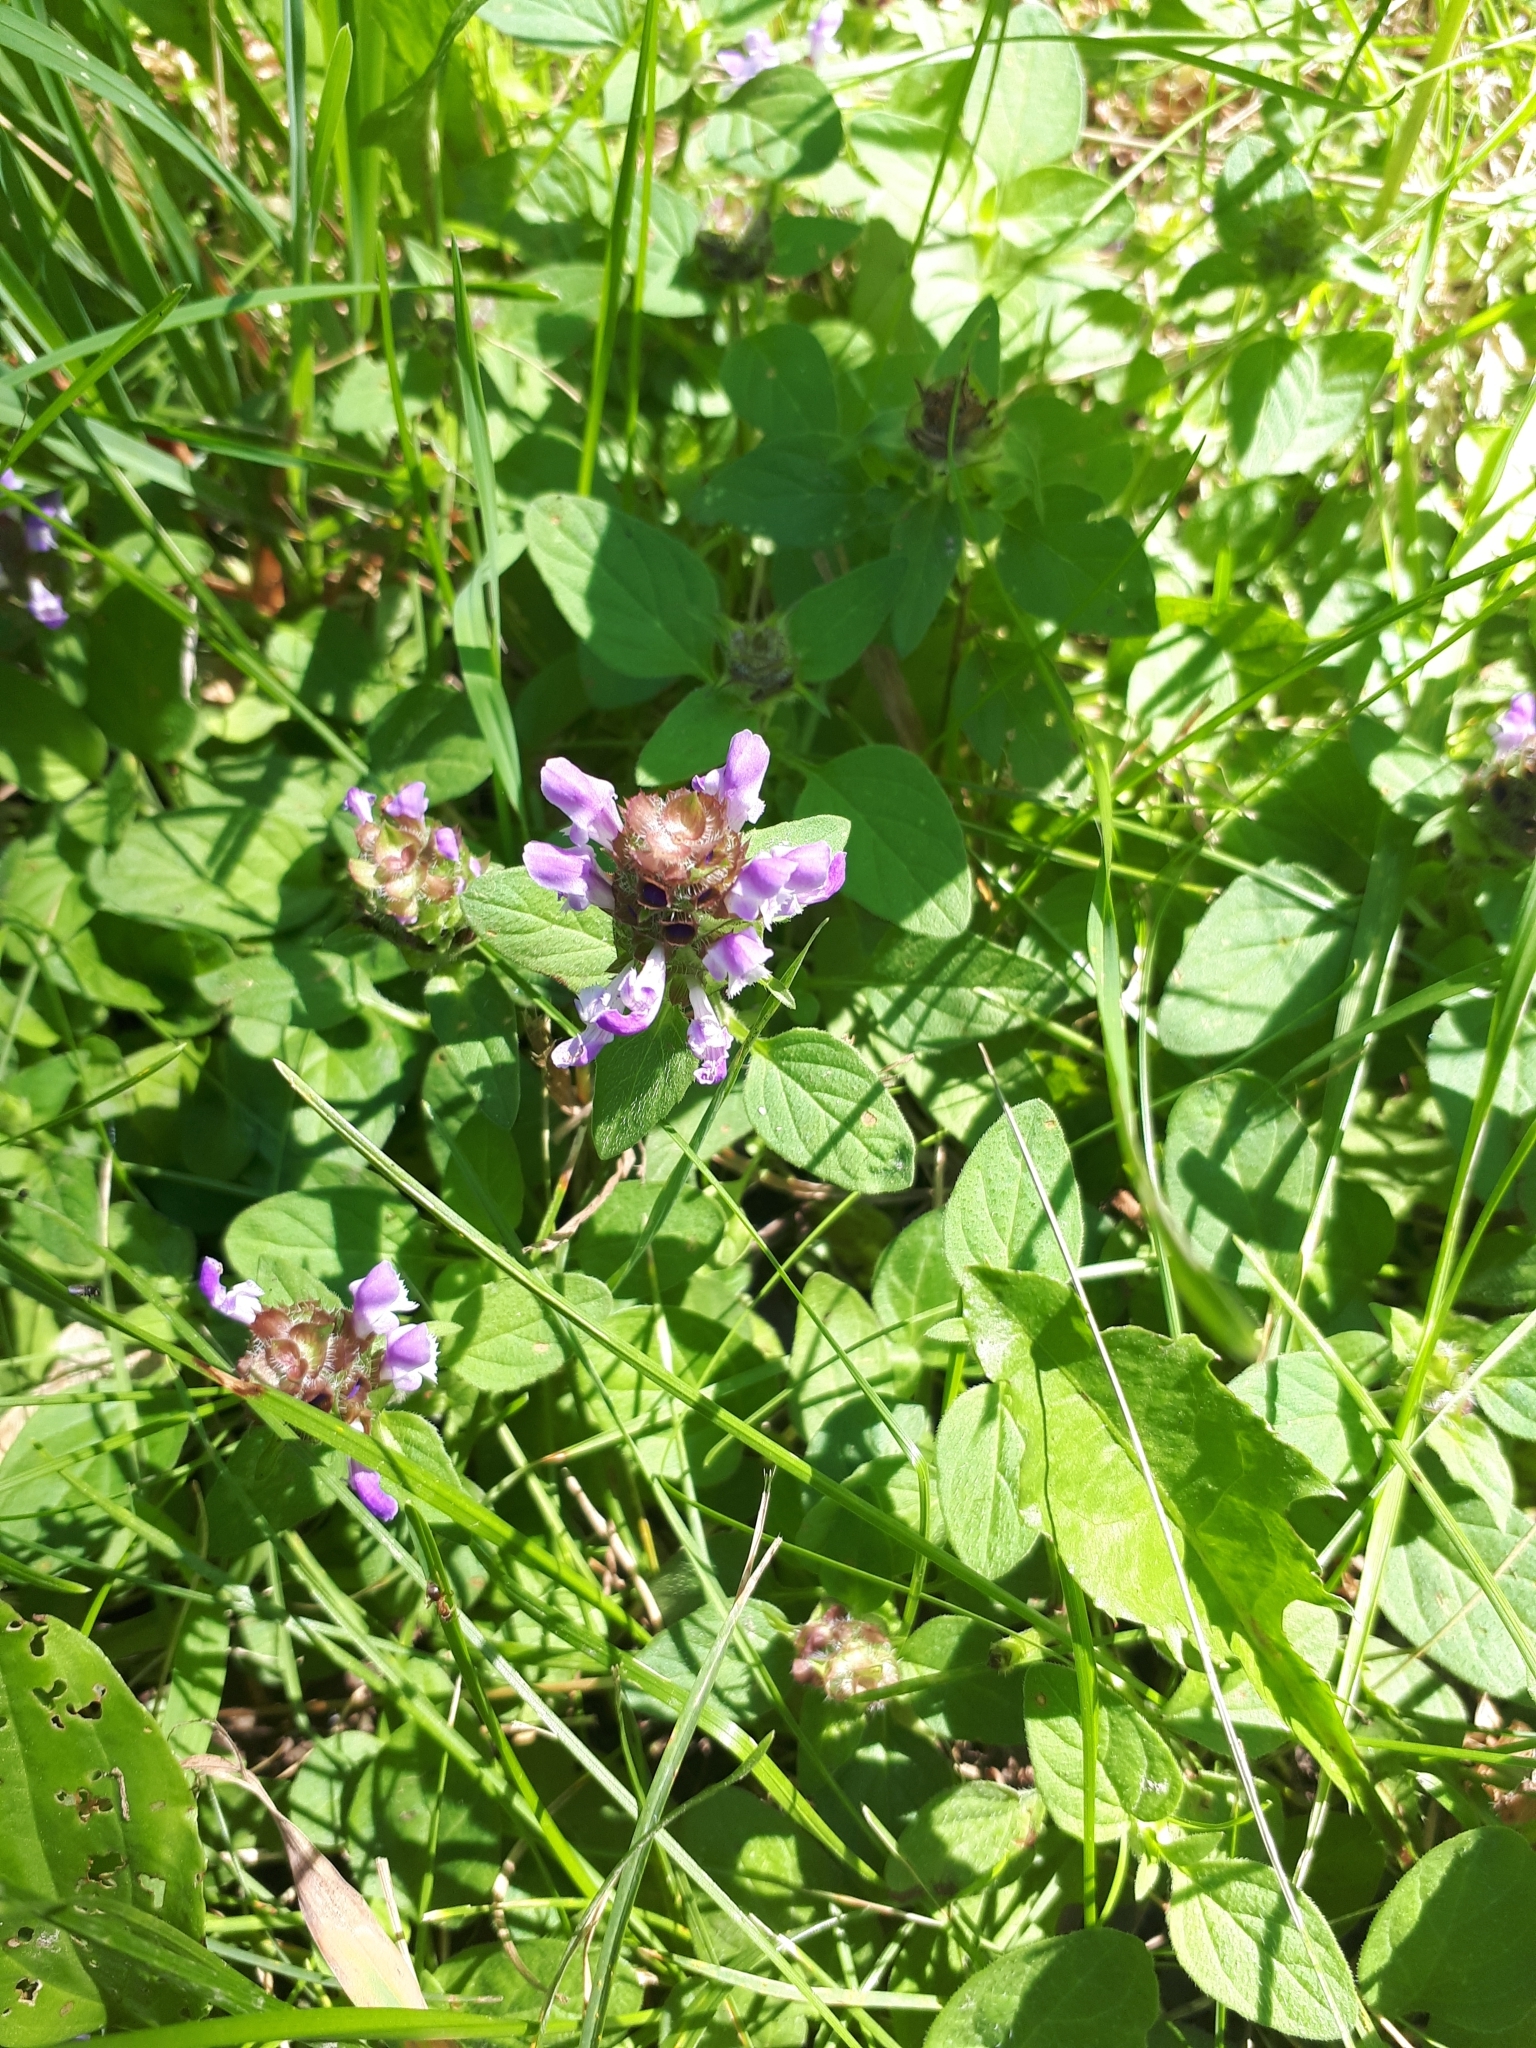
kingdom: Plantae
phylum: Tracheophyta
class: Magnoliopsida
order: Lamiales
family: Lamiaceae
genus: Prunella
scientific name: Prunella vulgaris
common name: Heal-all
